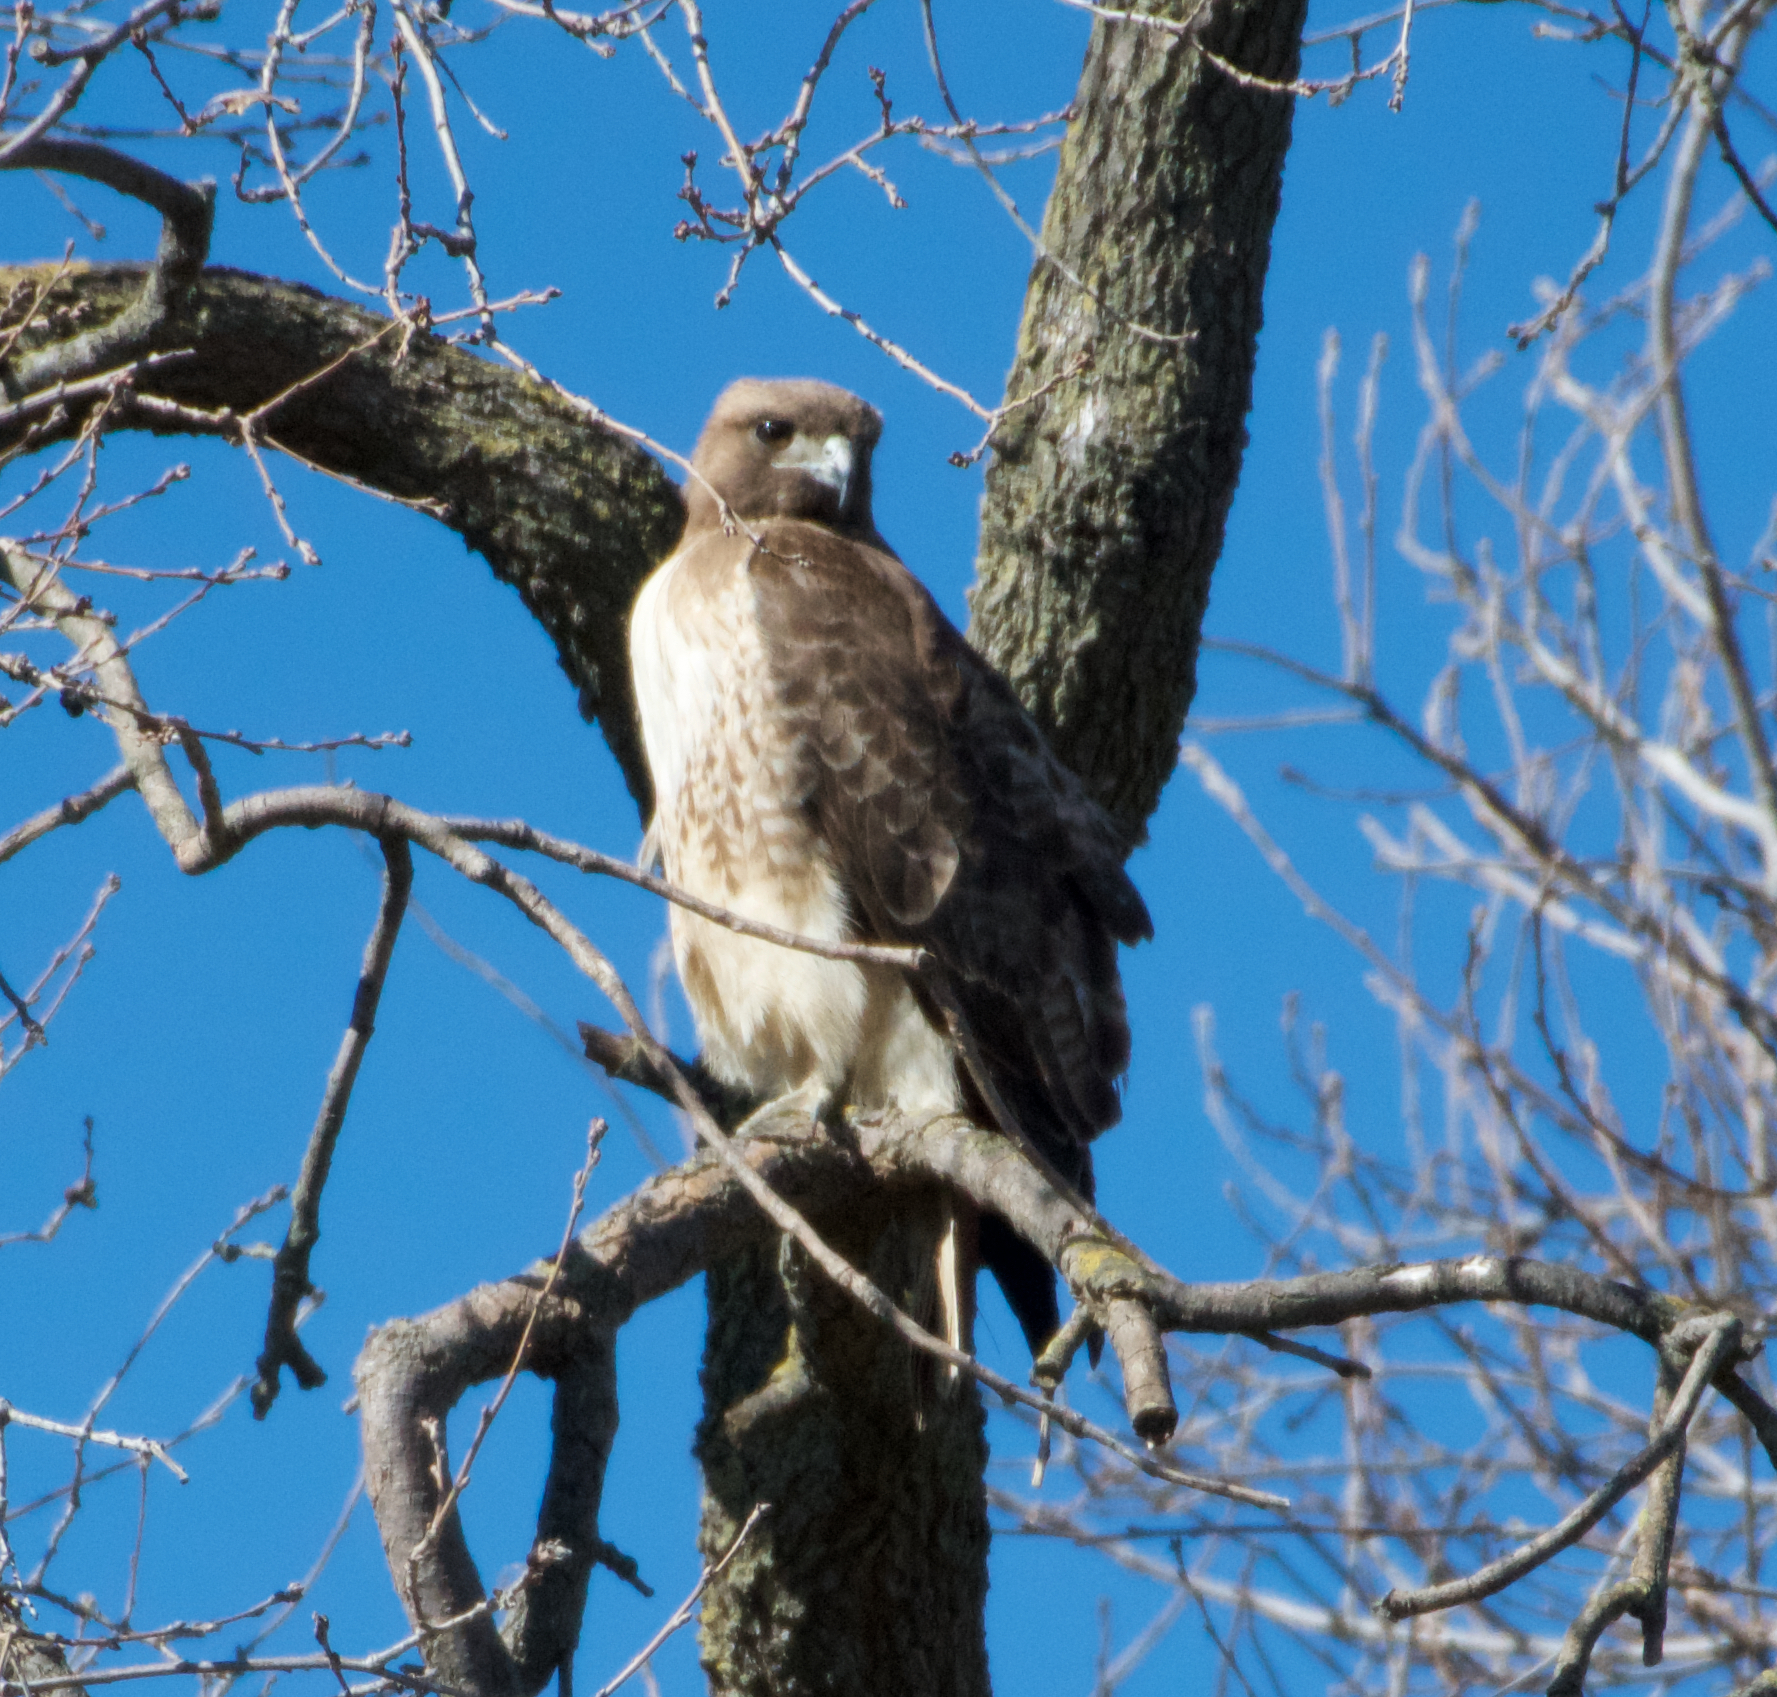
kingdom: Animalia
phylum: Chordata
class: Aves
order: Accipitriformes
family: Accipitridae
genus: Buteo
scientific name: Buteo jamaicensis
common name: Red-tailed hawk
